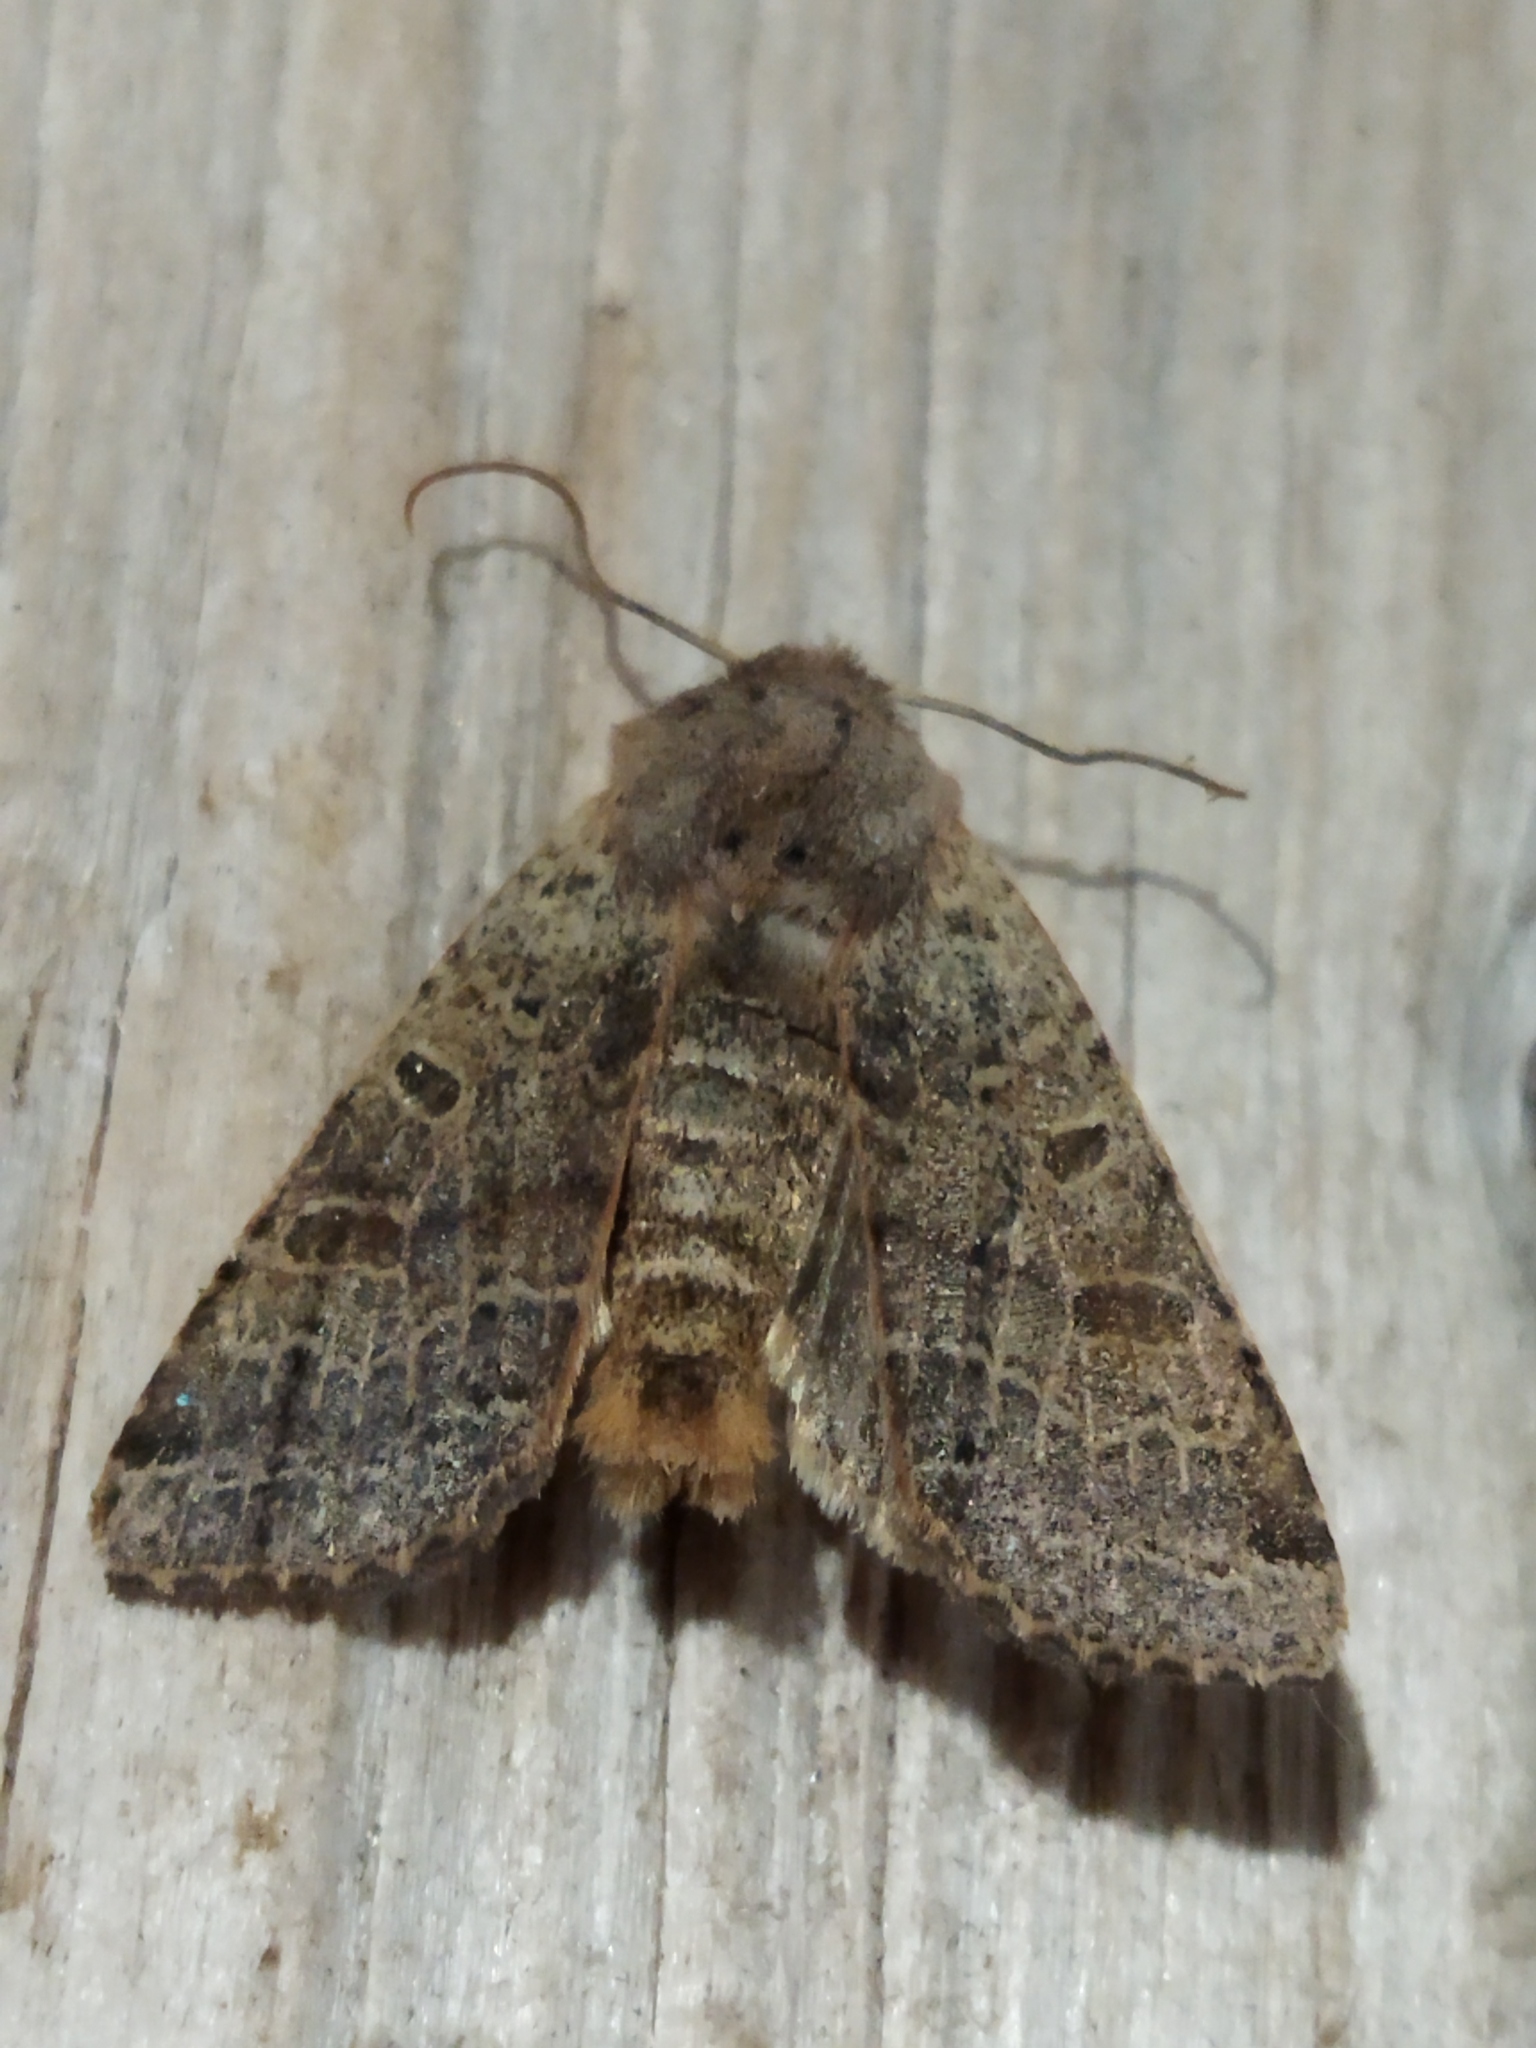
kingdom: Animalia
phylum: Arthropoda
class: Insecta
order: Lepidoptera
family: Noctuidae
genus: Agrochola
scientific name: Agrochola lychnidis
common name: Beaded chestnut
